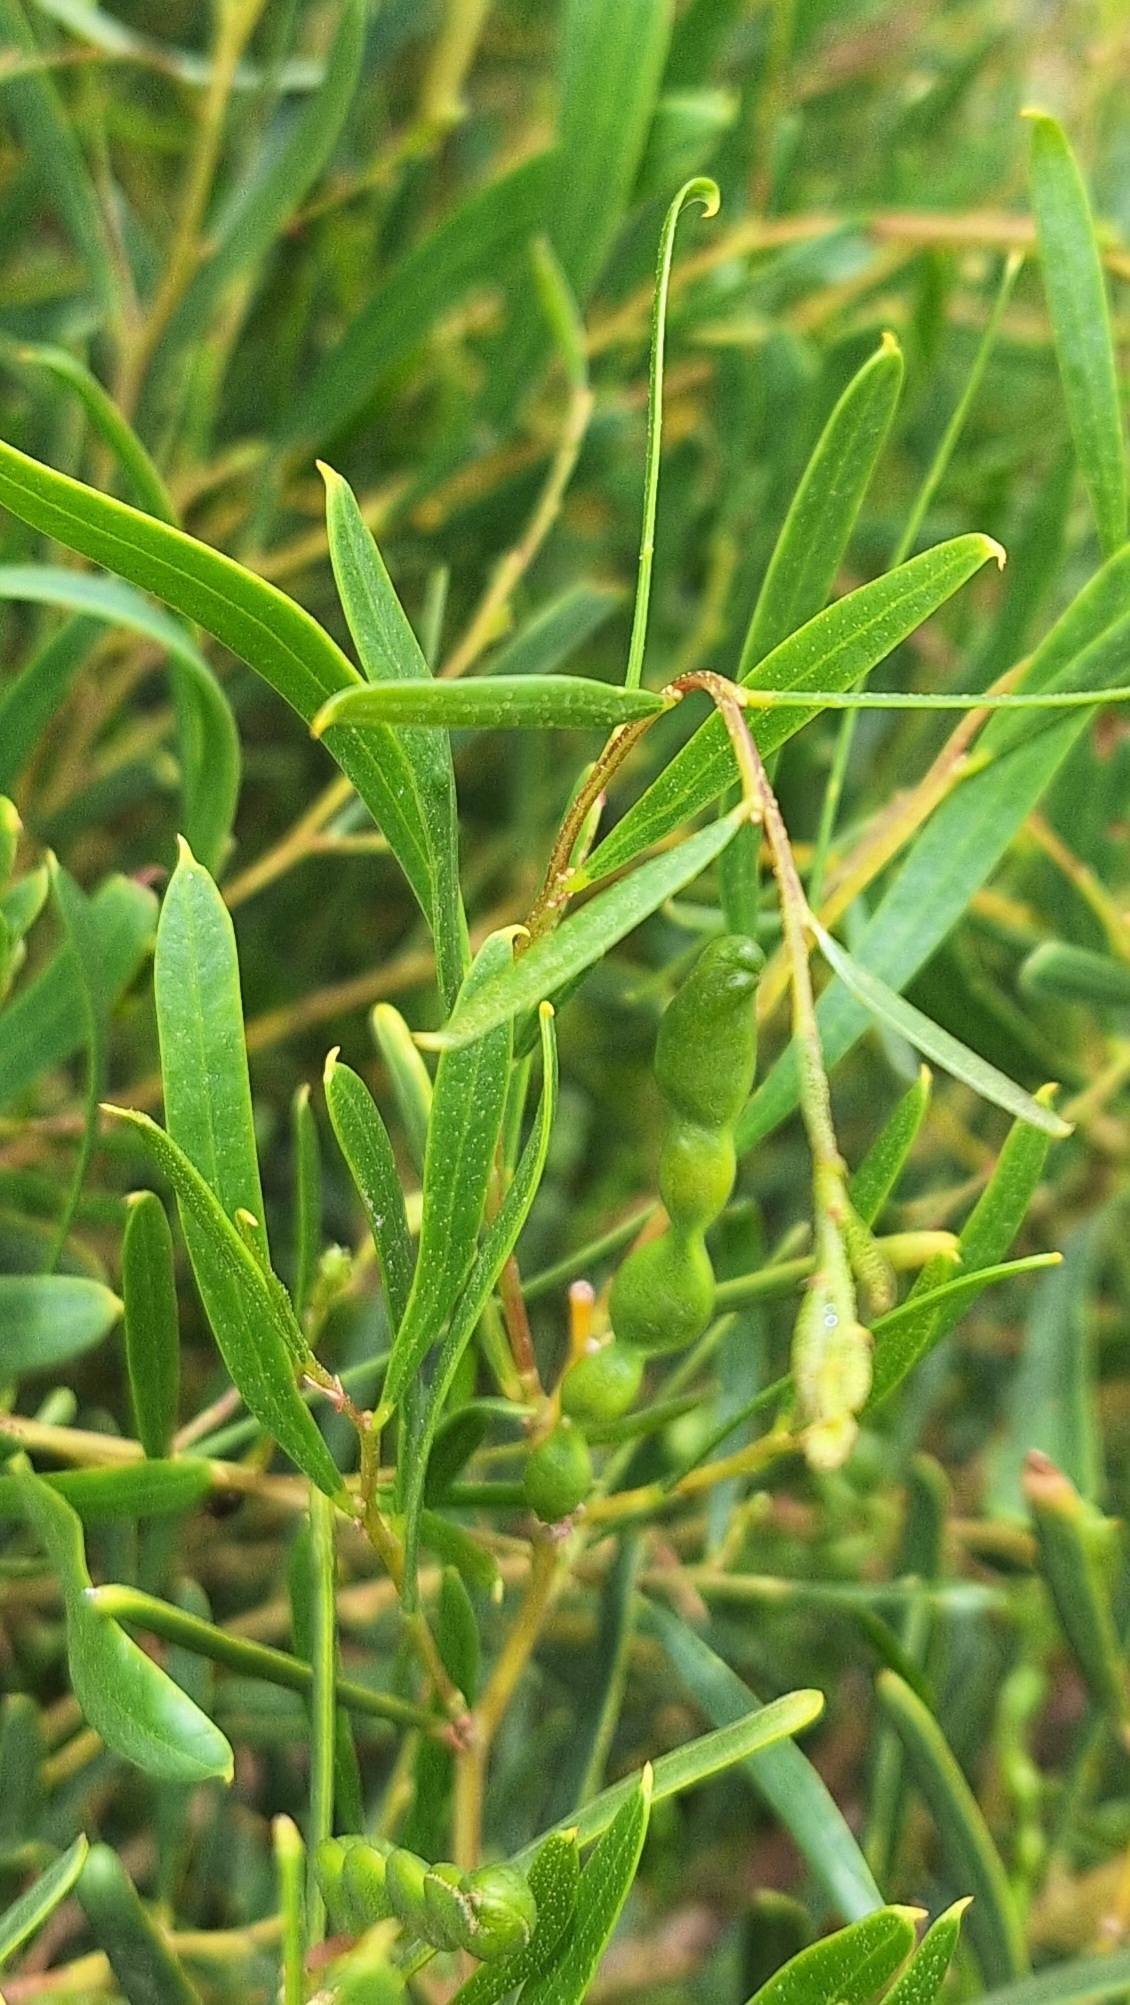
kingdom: Plantae
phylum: Tracheophyta
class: Magnoliopsida
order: Fabales
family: Fabaceae
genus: Acacia
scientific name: Acacia ligulata
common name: Dune wattle
